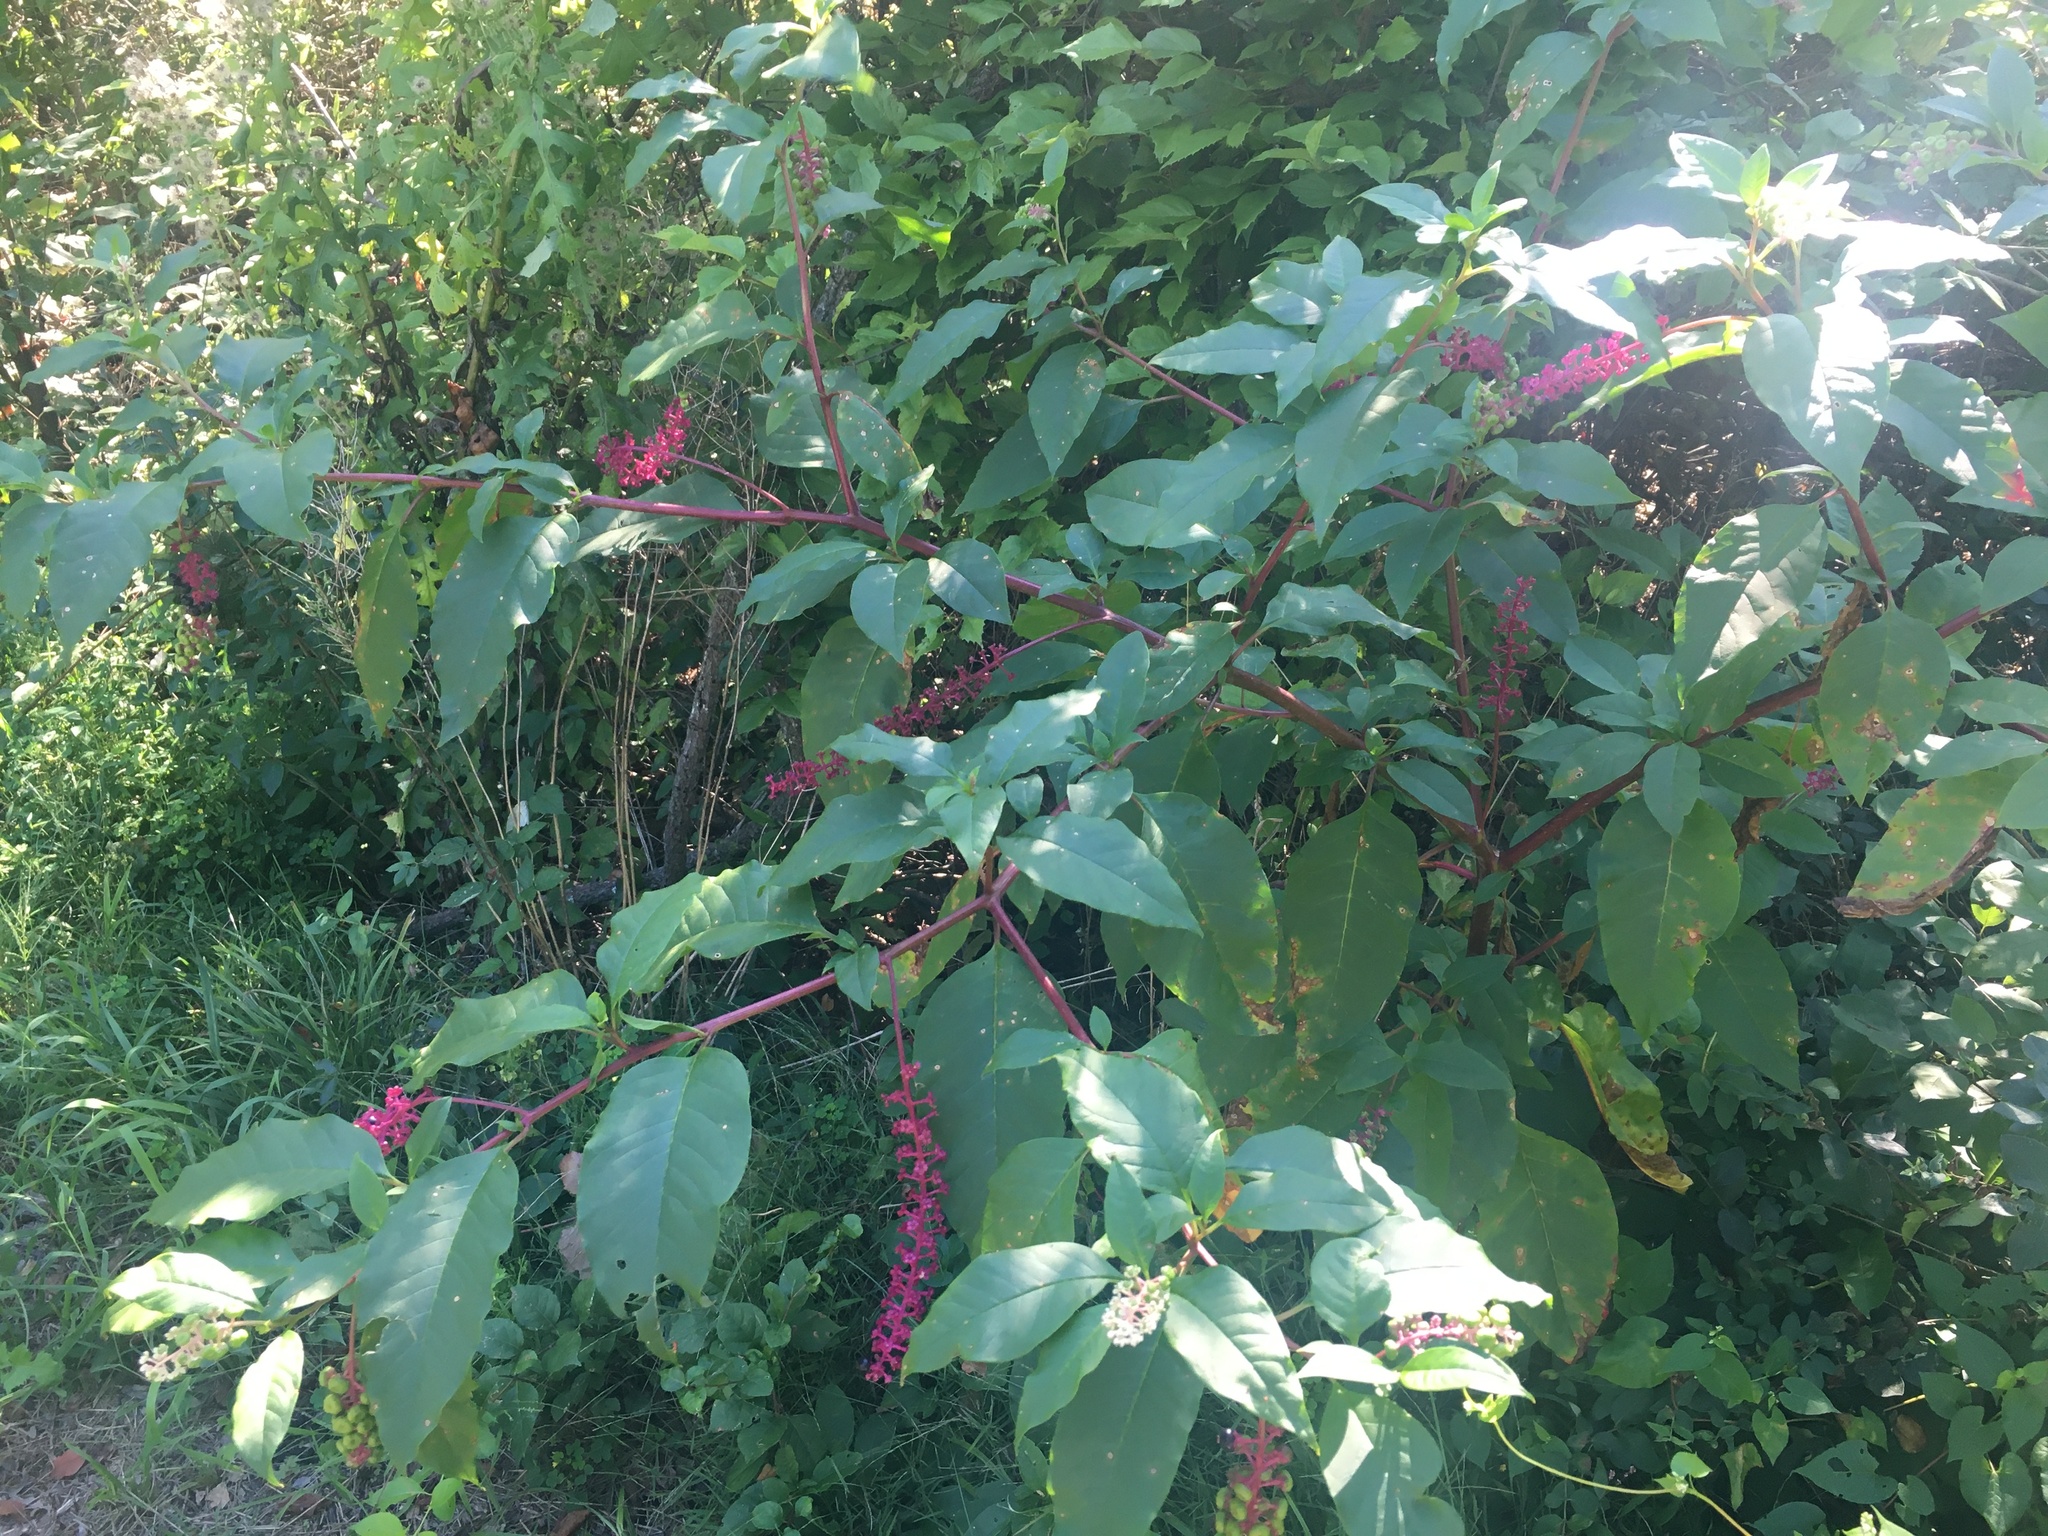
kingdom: Plantae
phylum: Tracheophyta
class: Magnoliopsida
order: Caryophyllales
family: Phytolaccaceae
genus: Phytolacca
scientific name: Phytolacca americana
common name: American pokeweed
